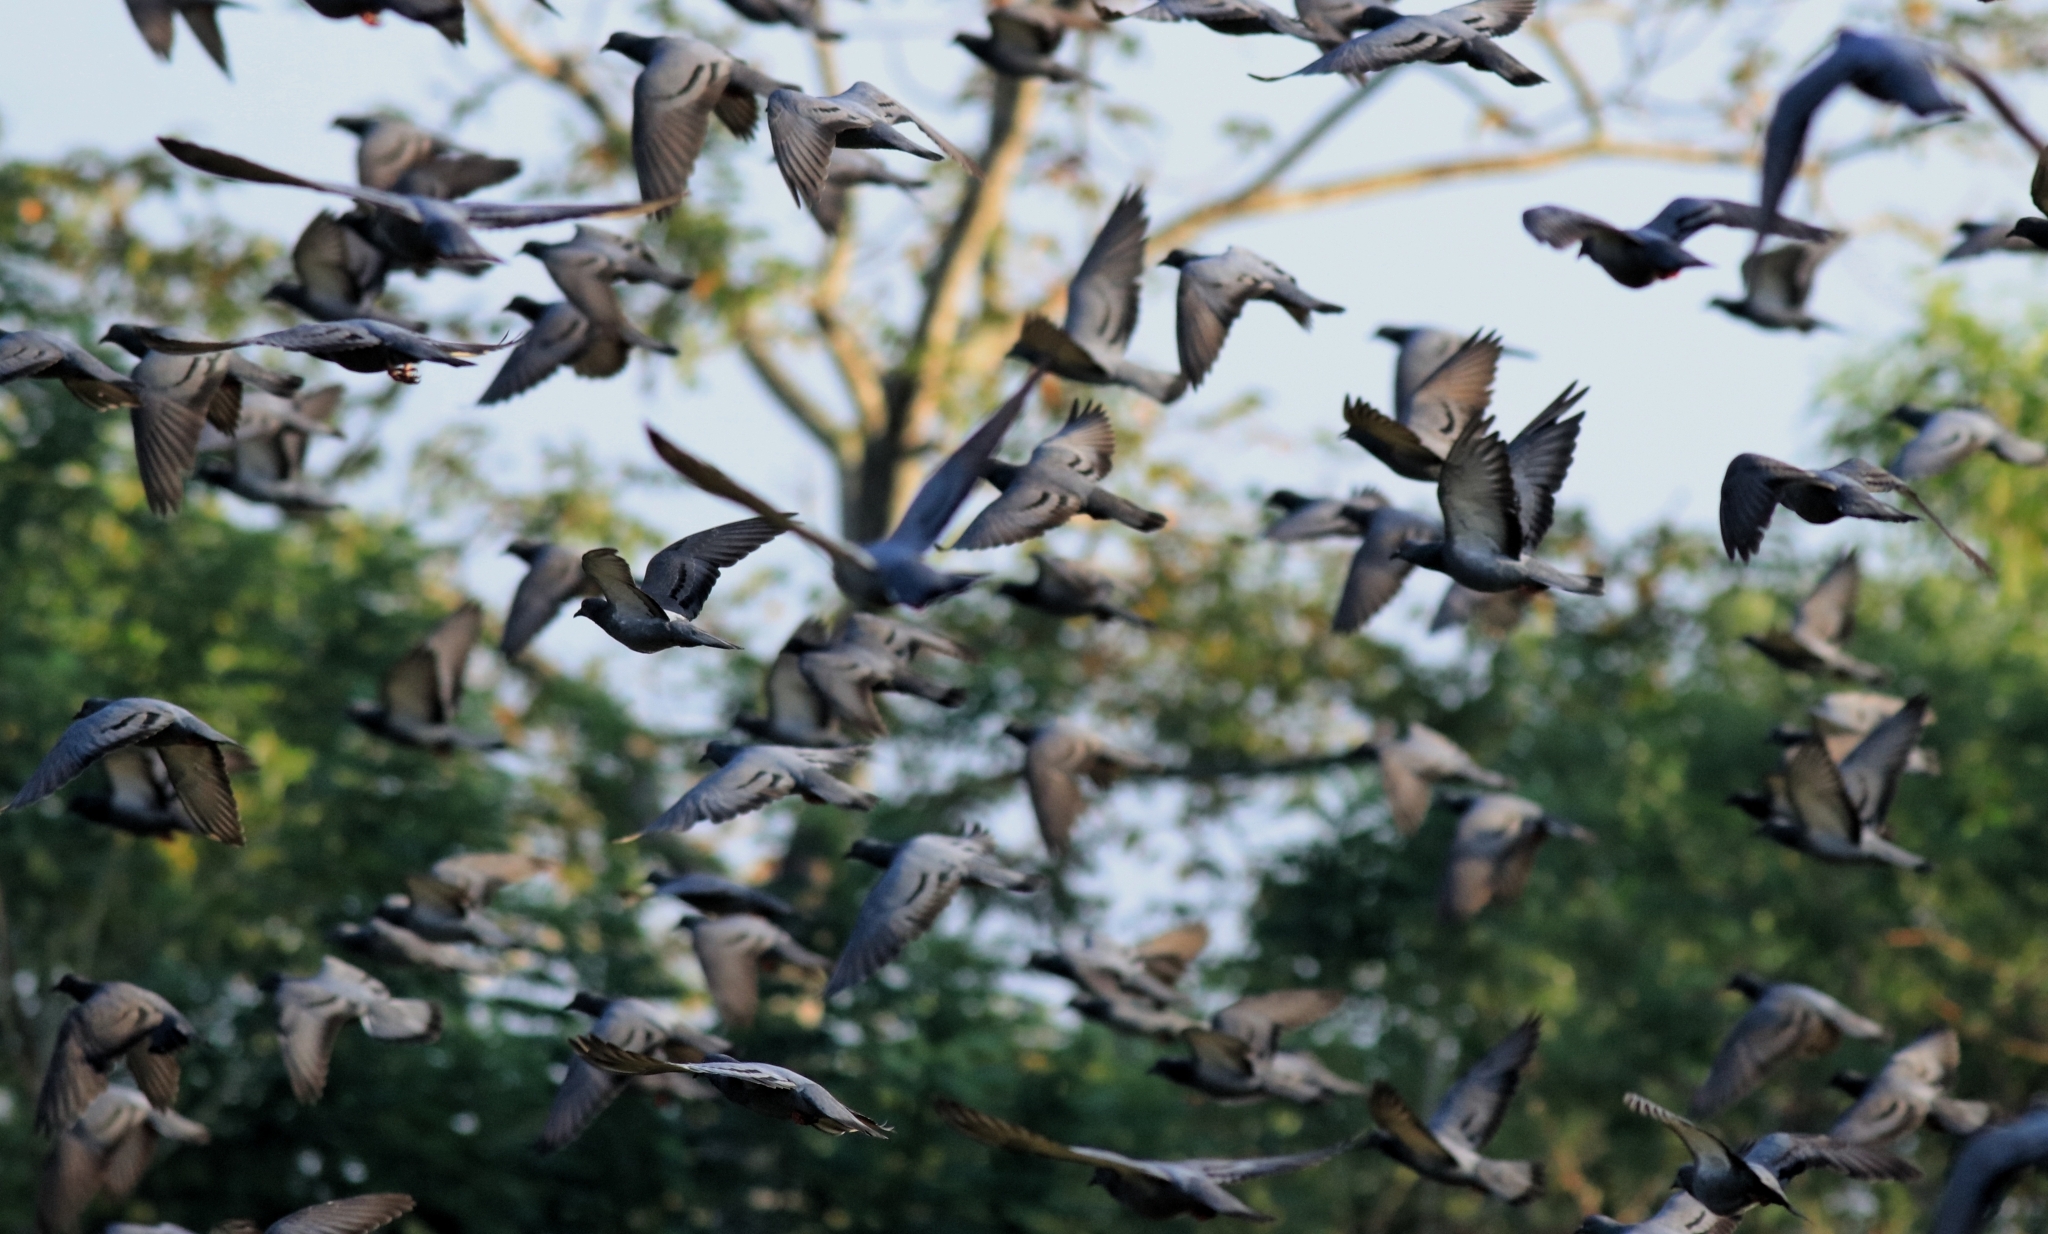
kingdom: Animalia
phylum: Chordata
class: Aves
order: Columbiformes
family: Columbidae
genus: Columba
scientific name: Columba livia
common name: Rock pigeon
